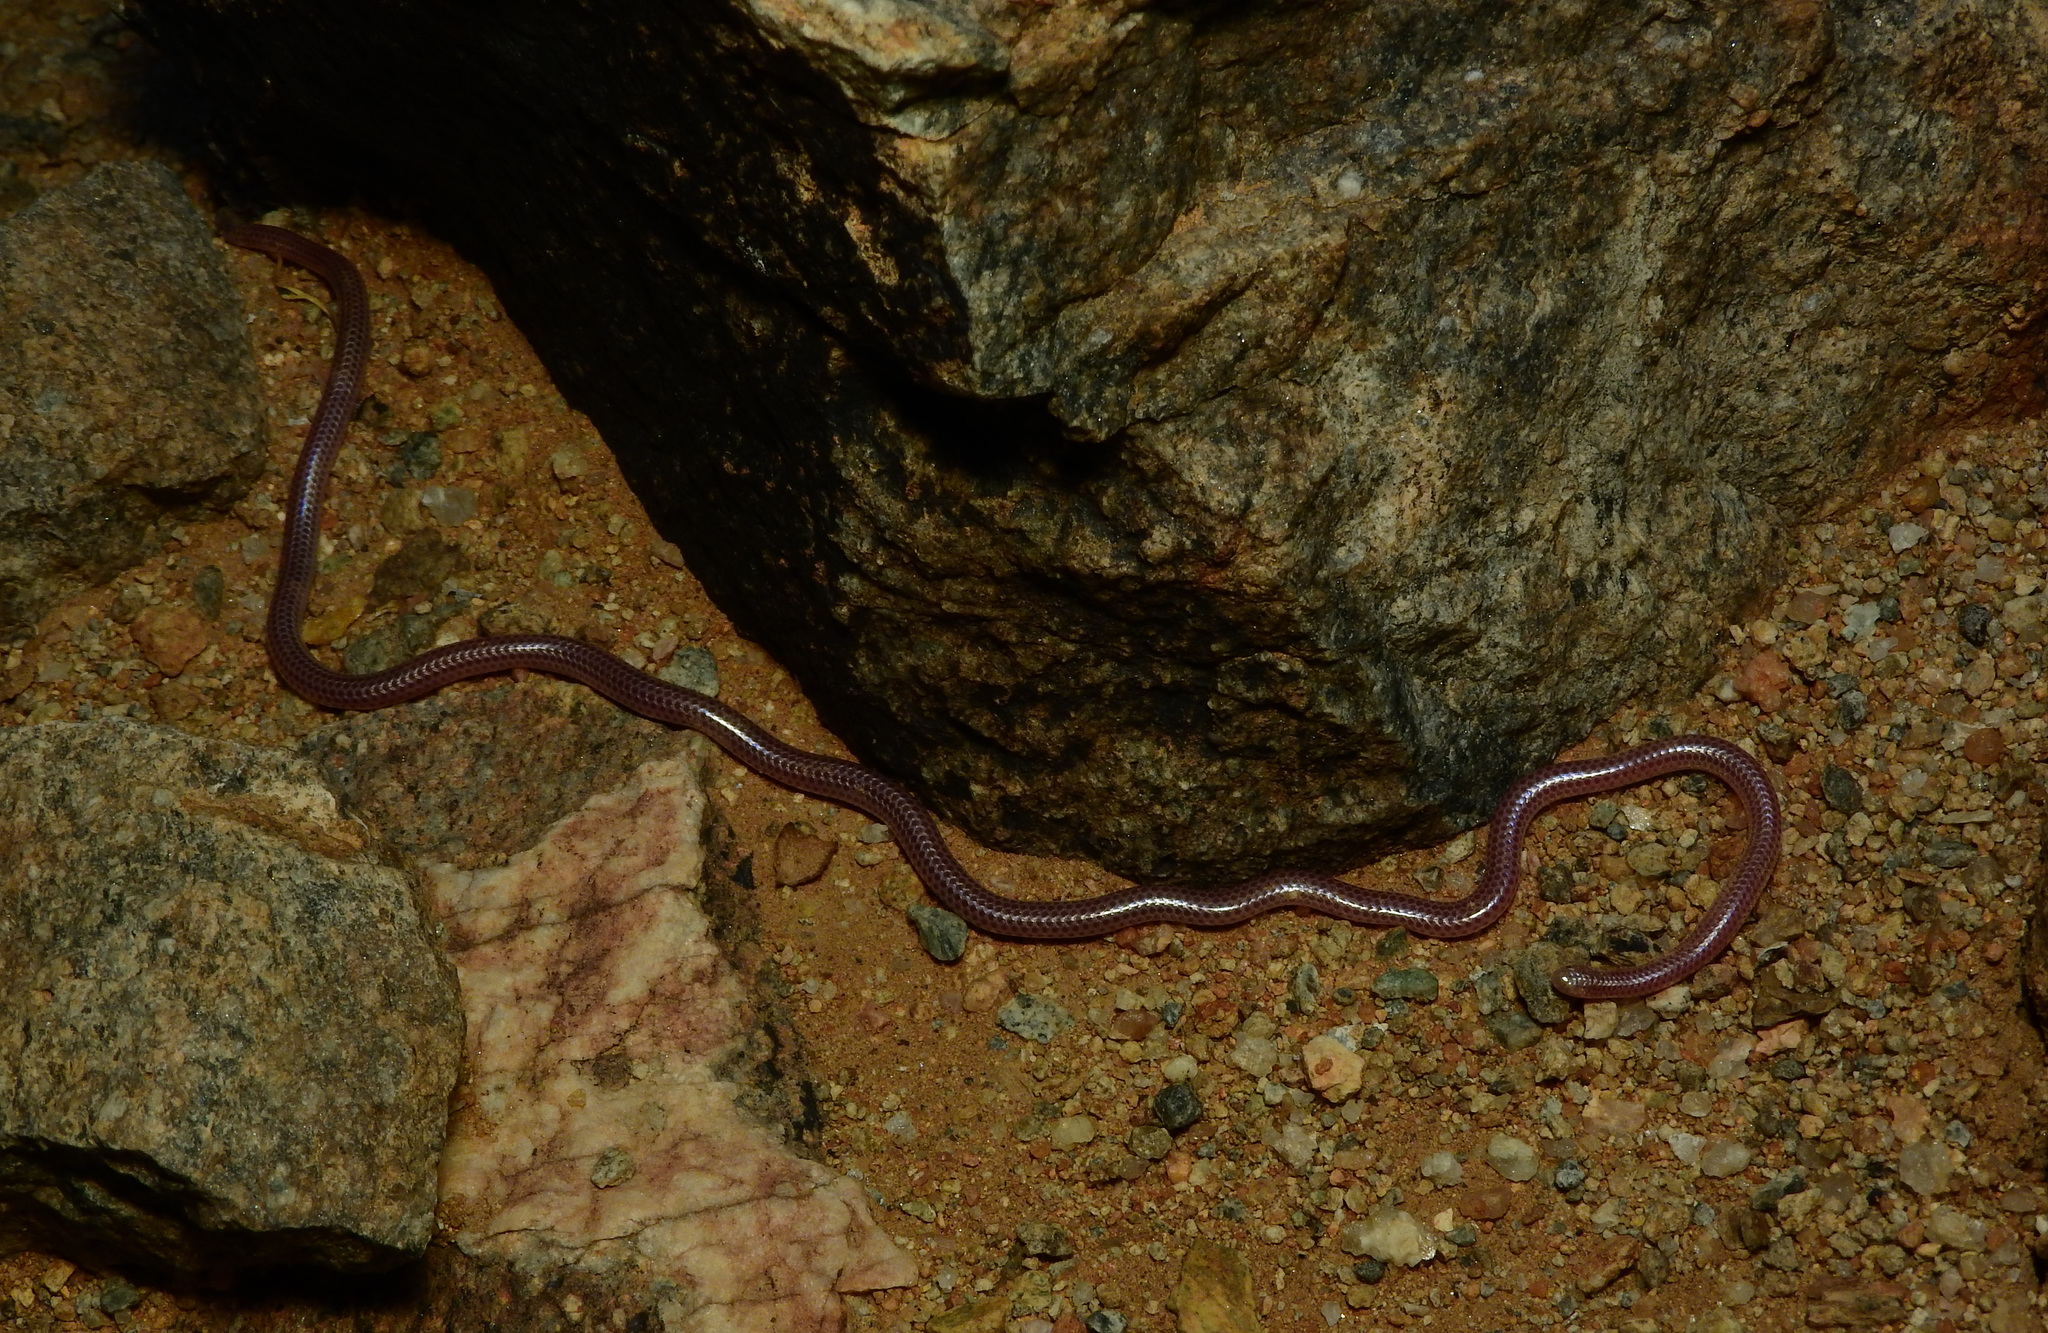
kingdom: Animalia
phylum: Chordata
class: Squamata
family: Leptotyphlopidae
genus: Namibiana
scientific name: Namibiana occidentalis
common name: Western thread snake
